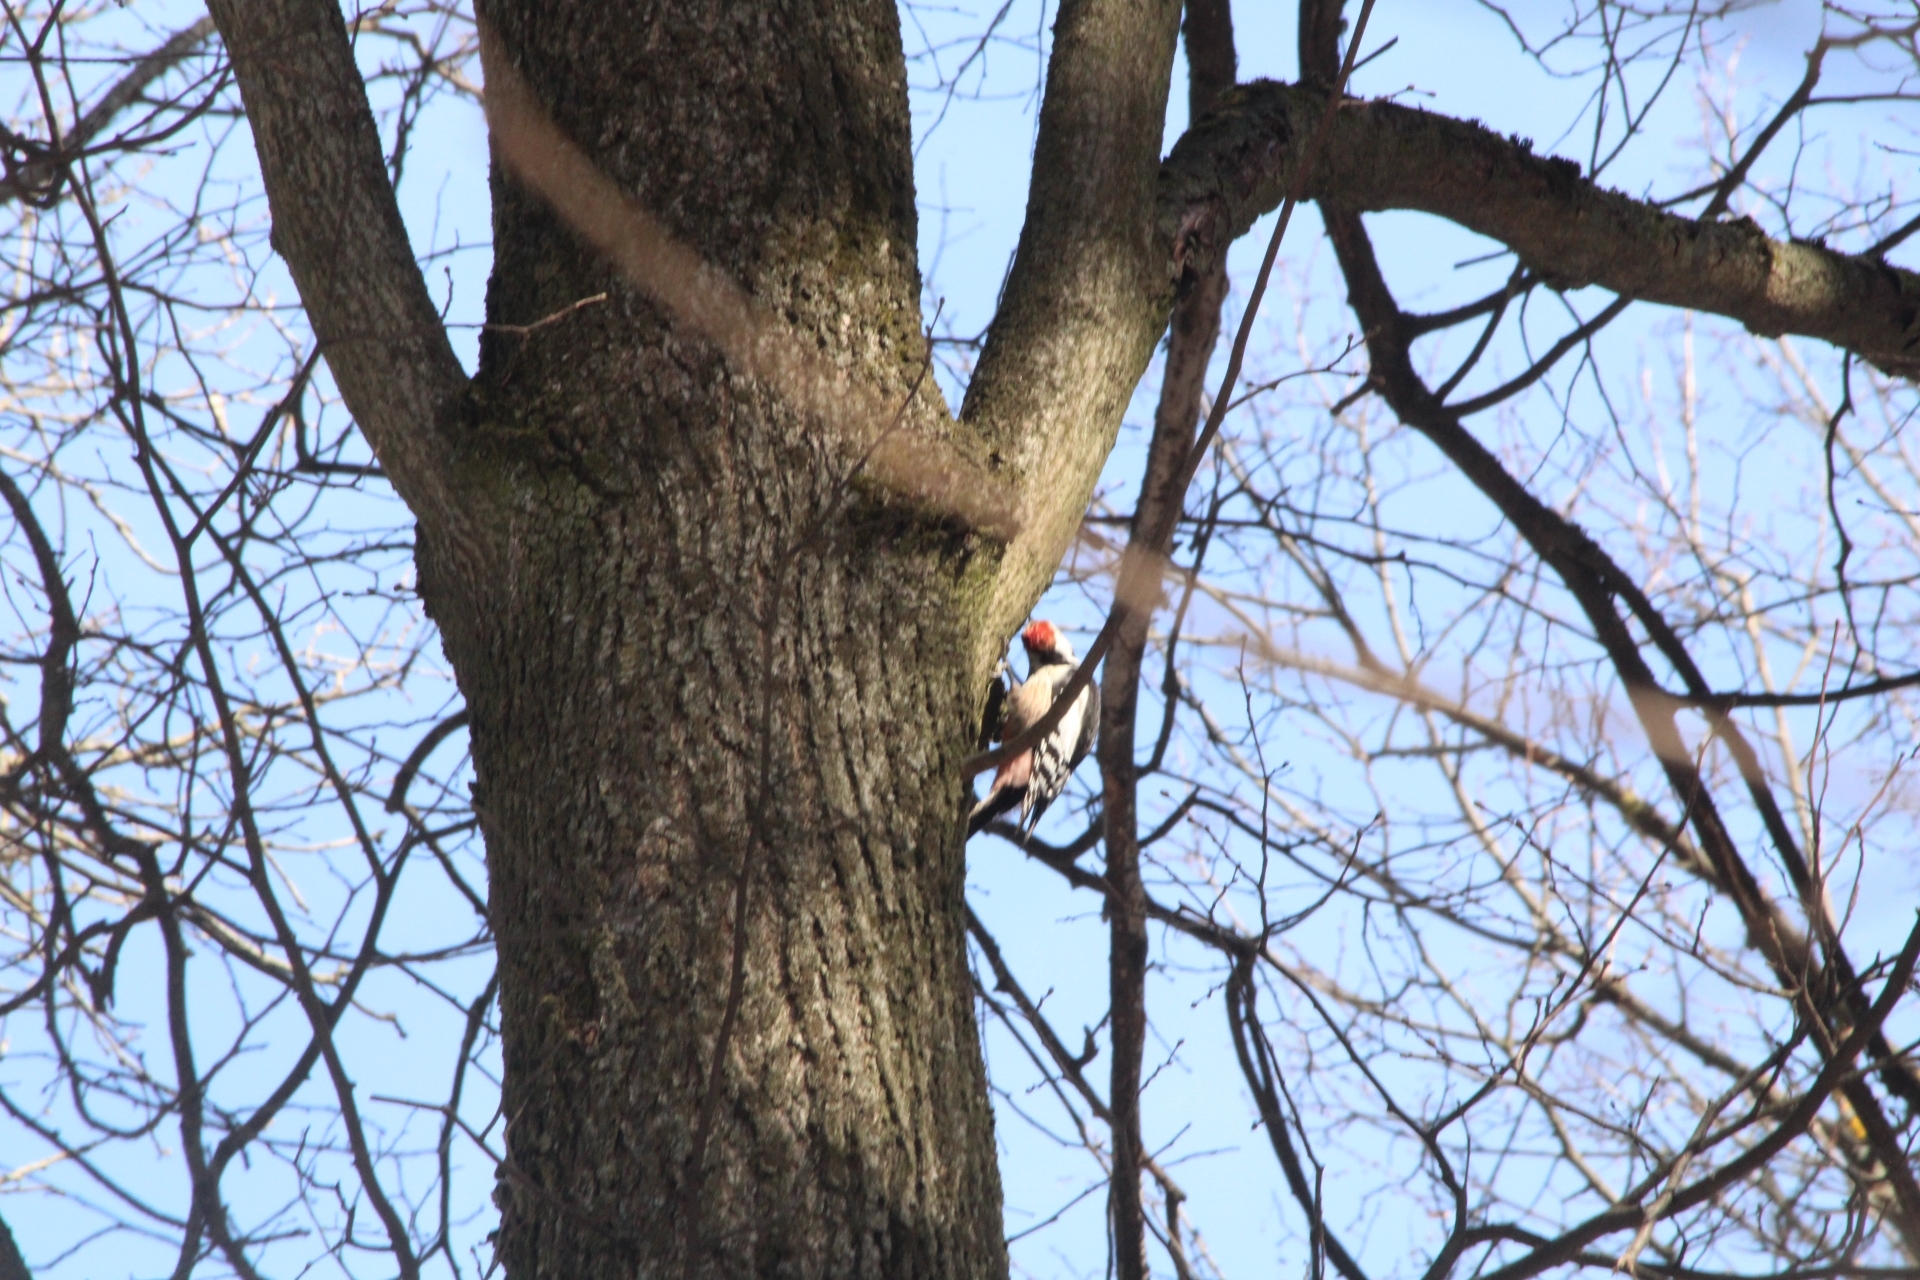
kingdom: Animalia
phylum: Chordata
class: Aves
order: Piciformes
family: Picidae
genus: Dendrocoptes
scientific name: Dendrocoptes medius
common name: Middle spotted woodpecker
